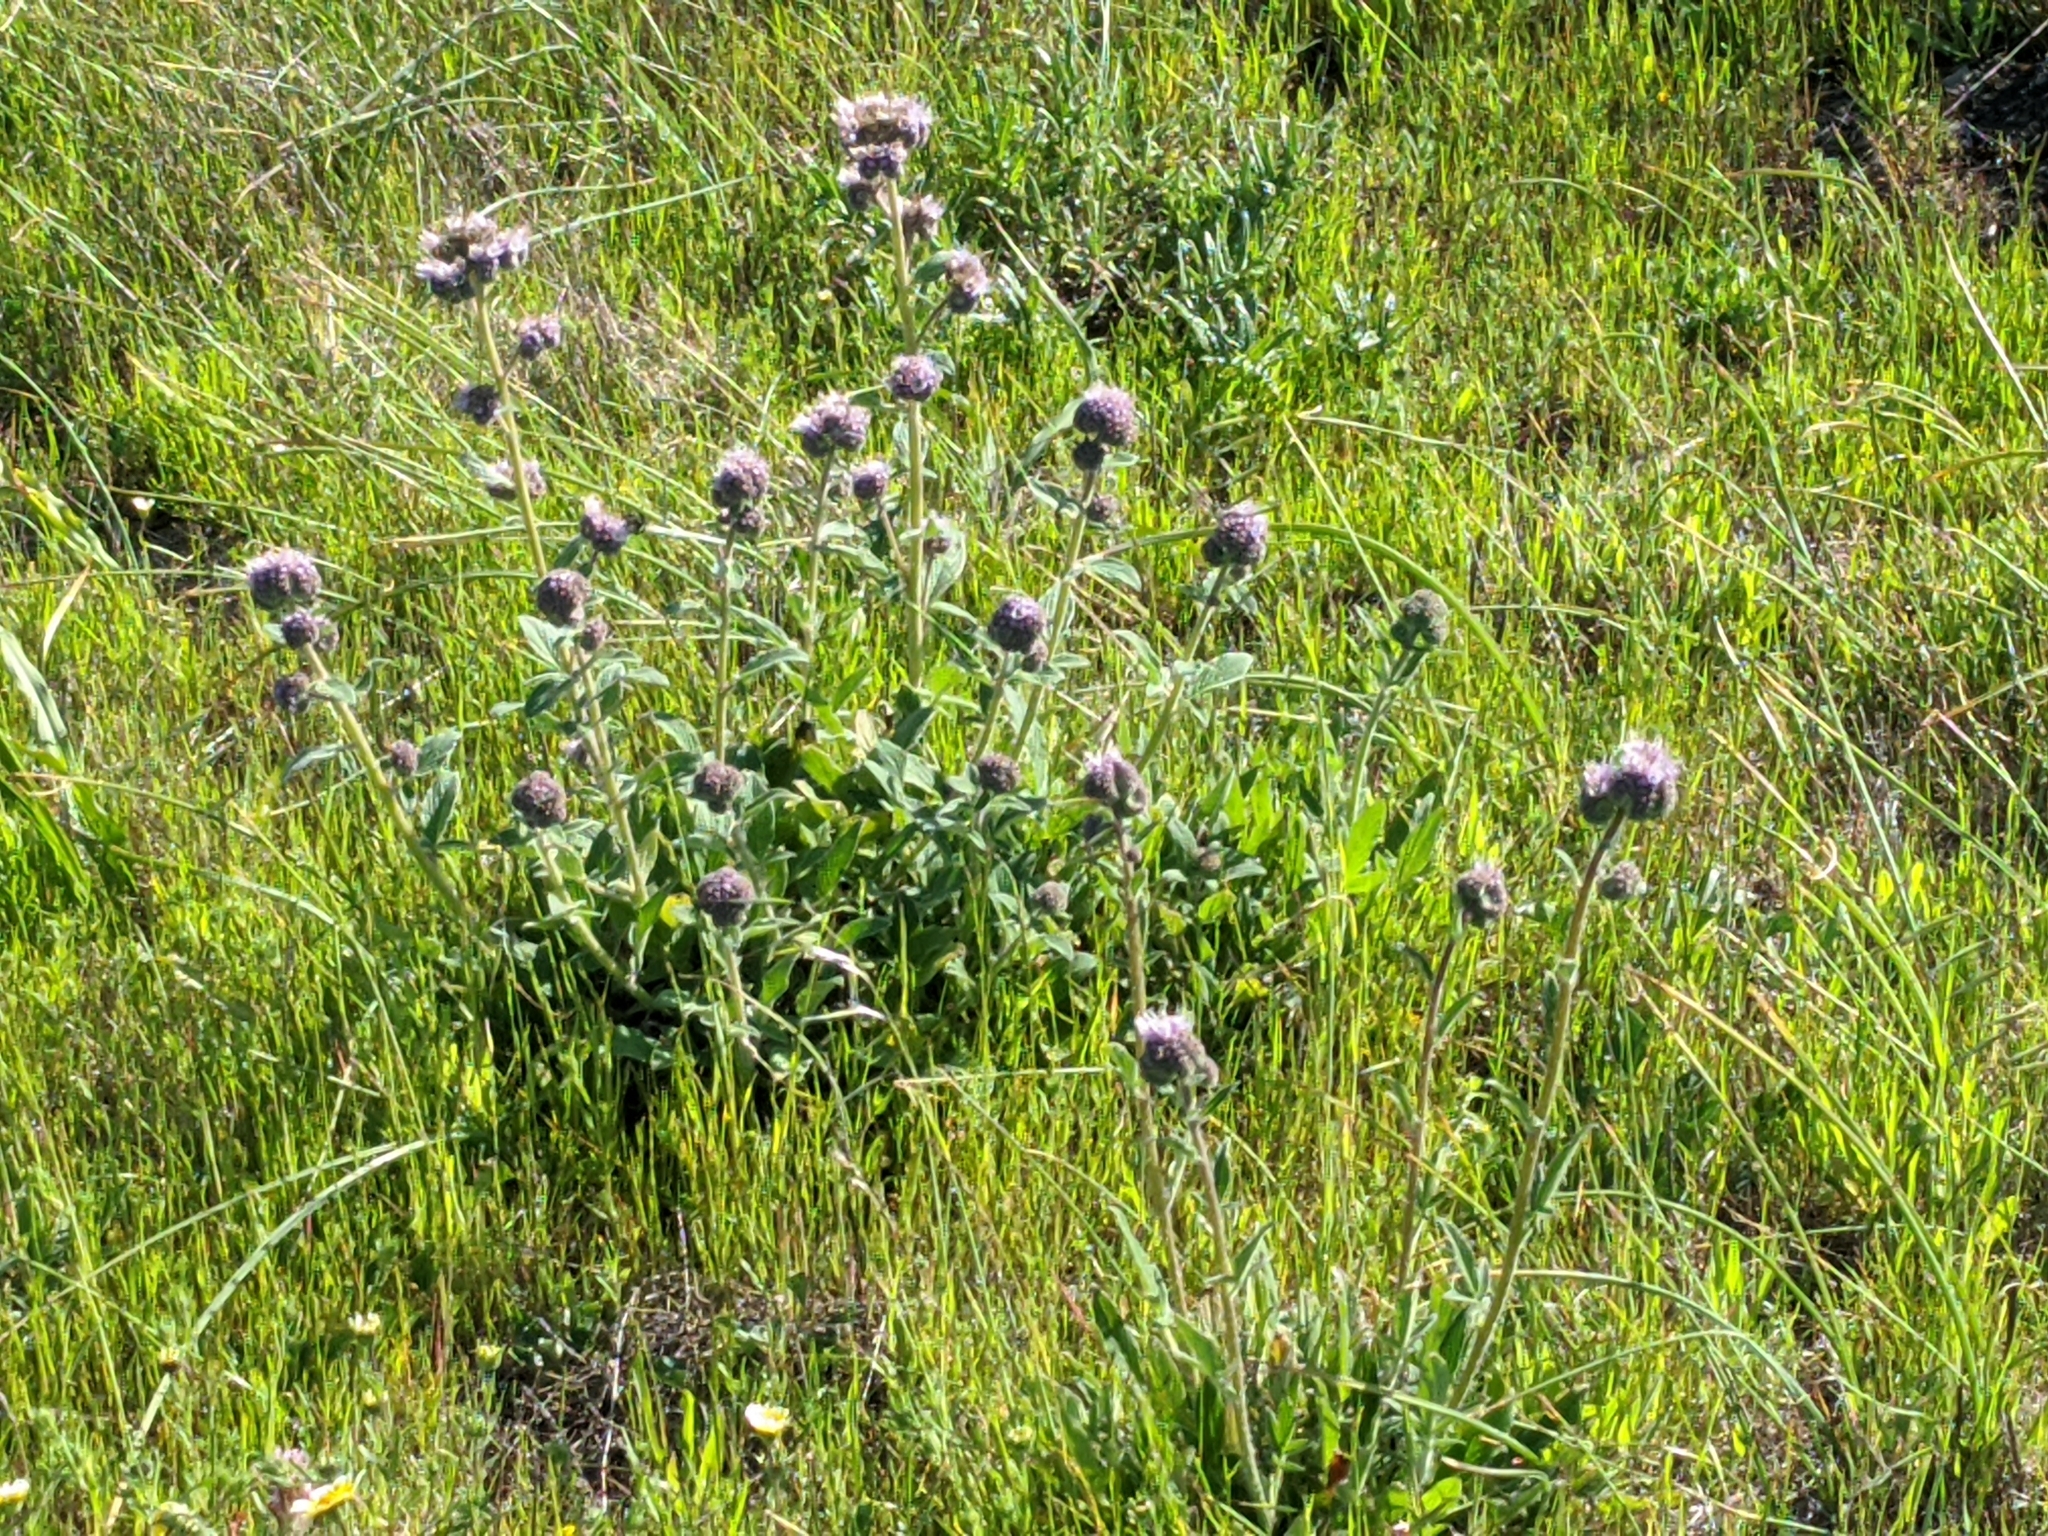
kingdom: Plantae
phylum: Tracheophyta
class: Magnoliopsida
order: Boraginales
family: Hydrophyllaceae
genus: Phacelia
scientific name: Phacelia californica
